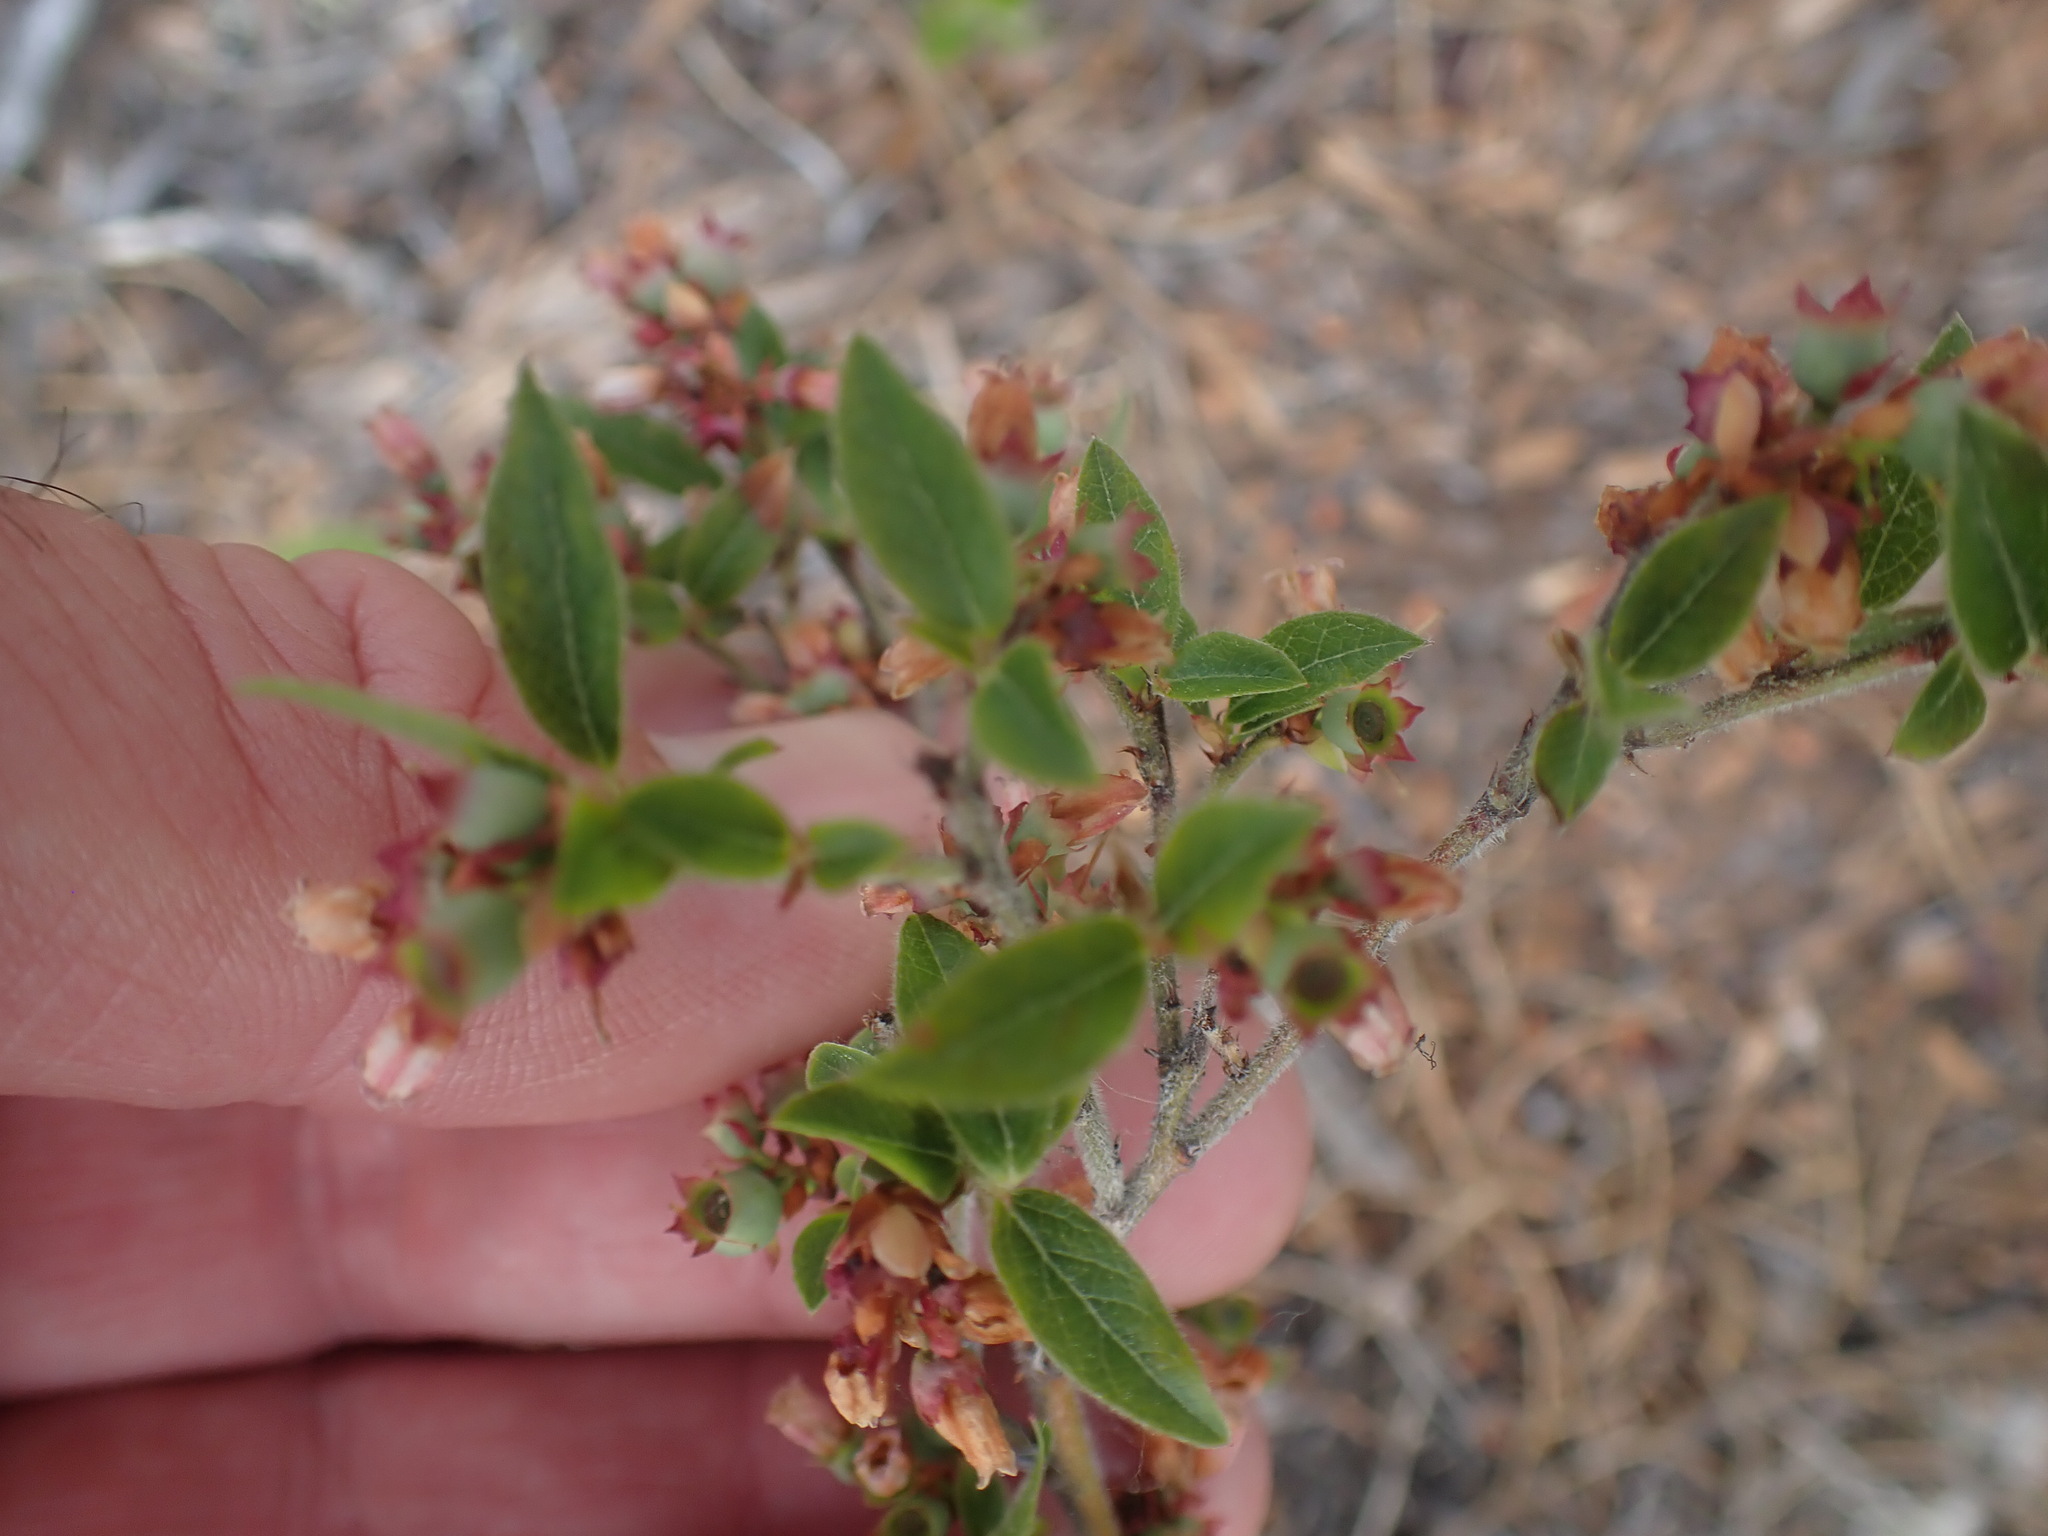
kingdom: Plantae
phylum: Tracheophyta
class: Magnoliopsida
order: Ericales
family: Ericaceae
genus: Vaccinium
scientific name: Vaccinium myrtilloides
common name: Canada blueberry
